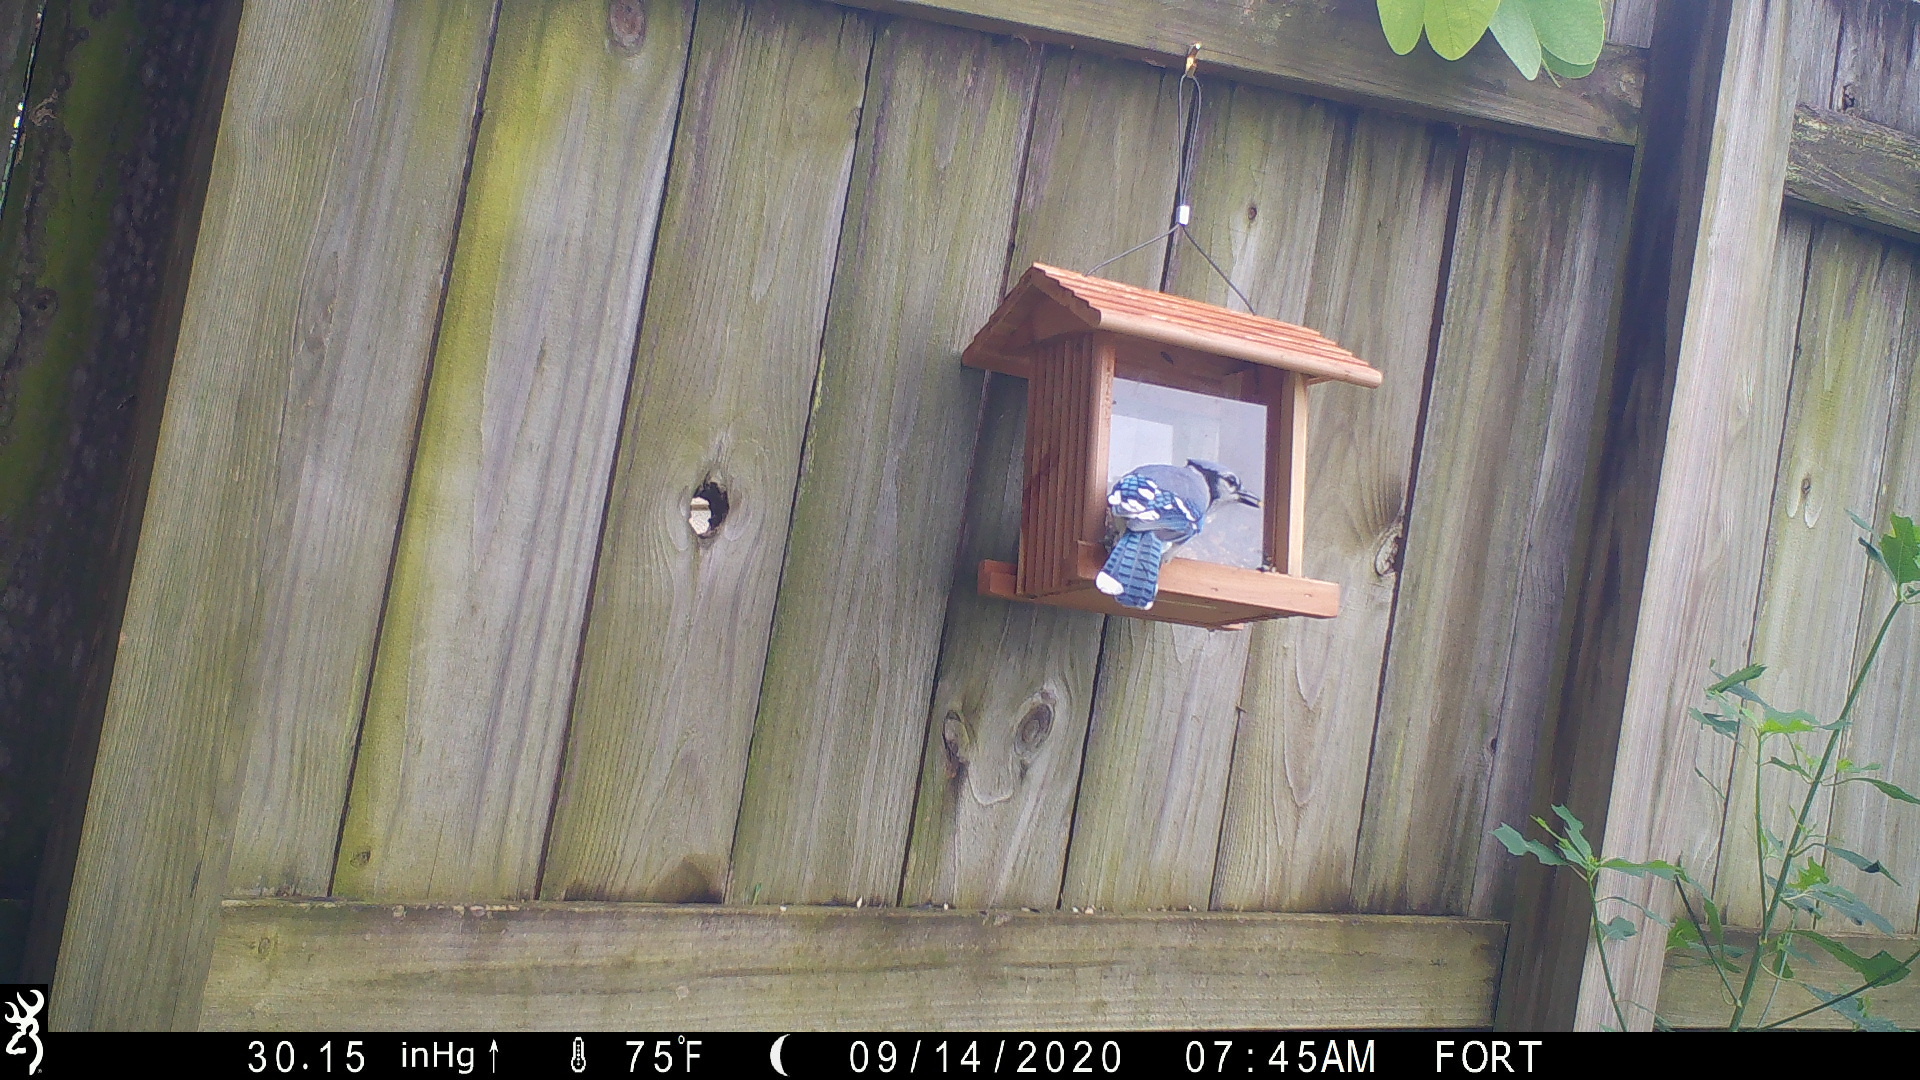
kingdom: Animalia
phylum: Chordata
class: Aves
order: Passeriformes
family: Corvidae
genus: Cyanocitta
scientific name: Cyanocitta cristata
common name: Blue jay
